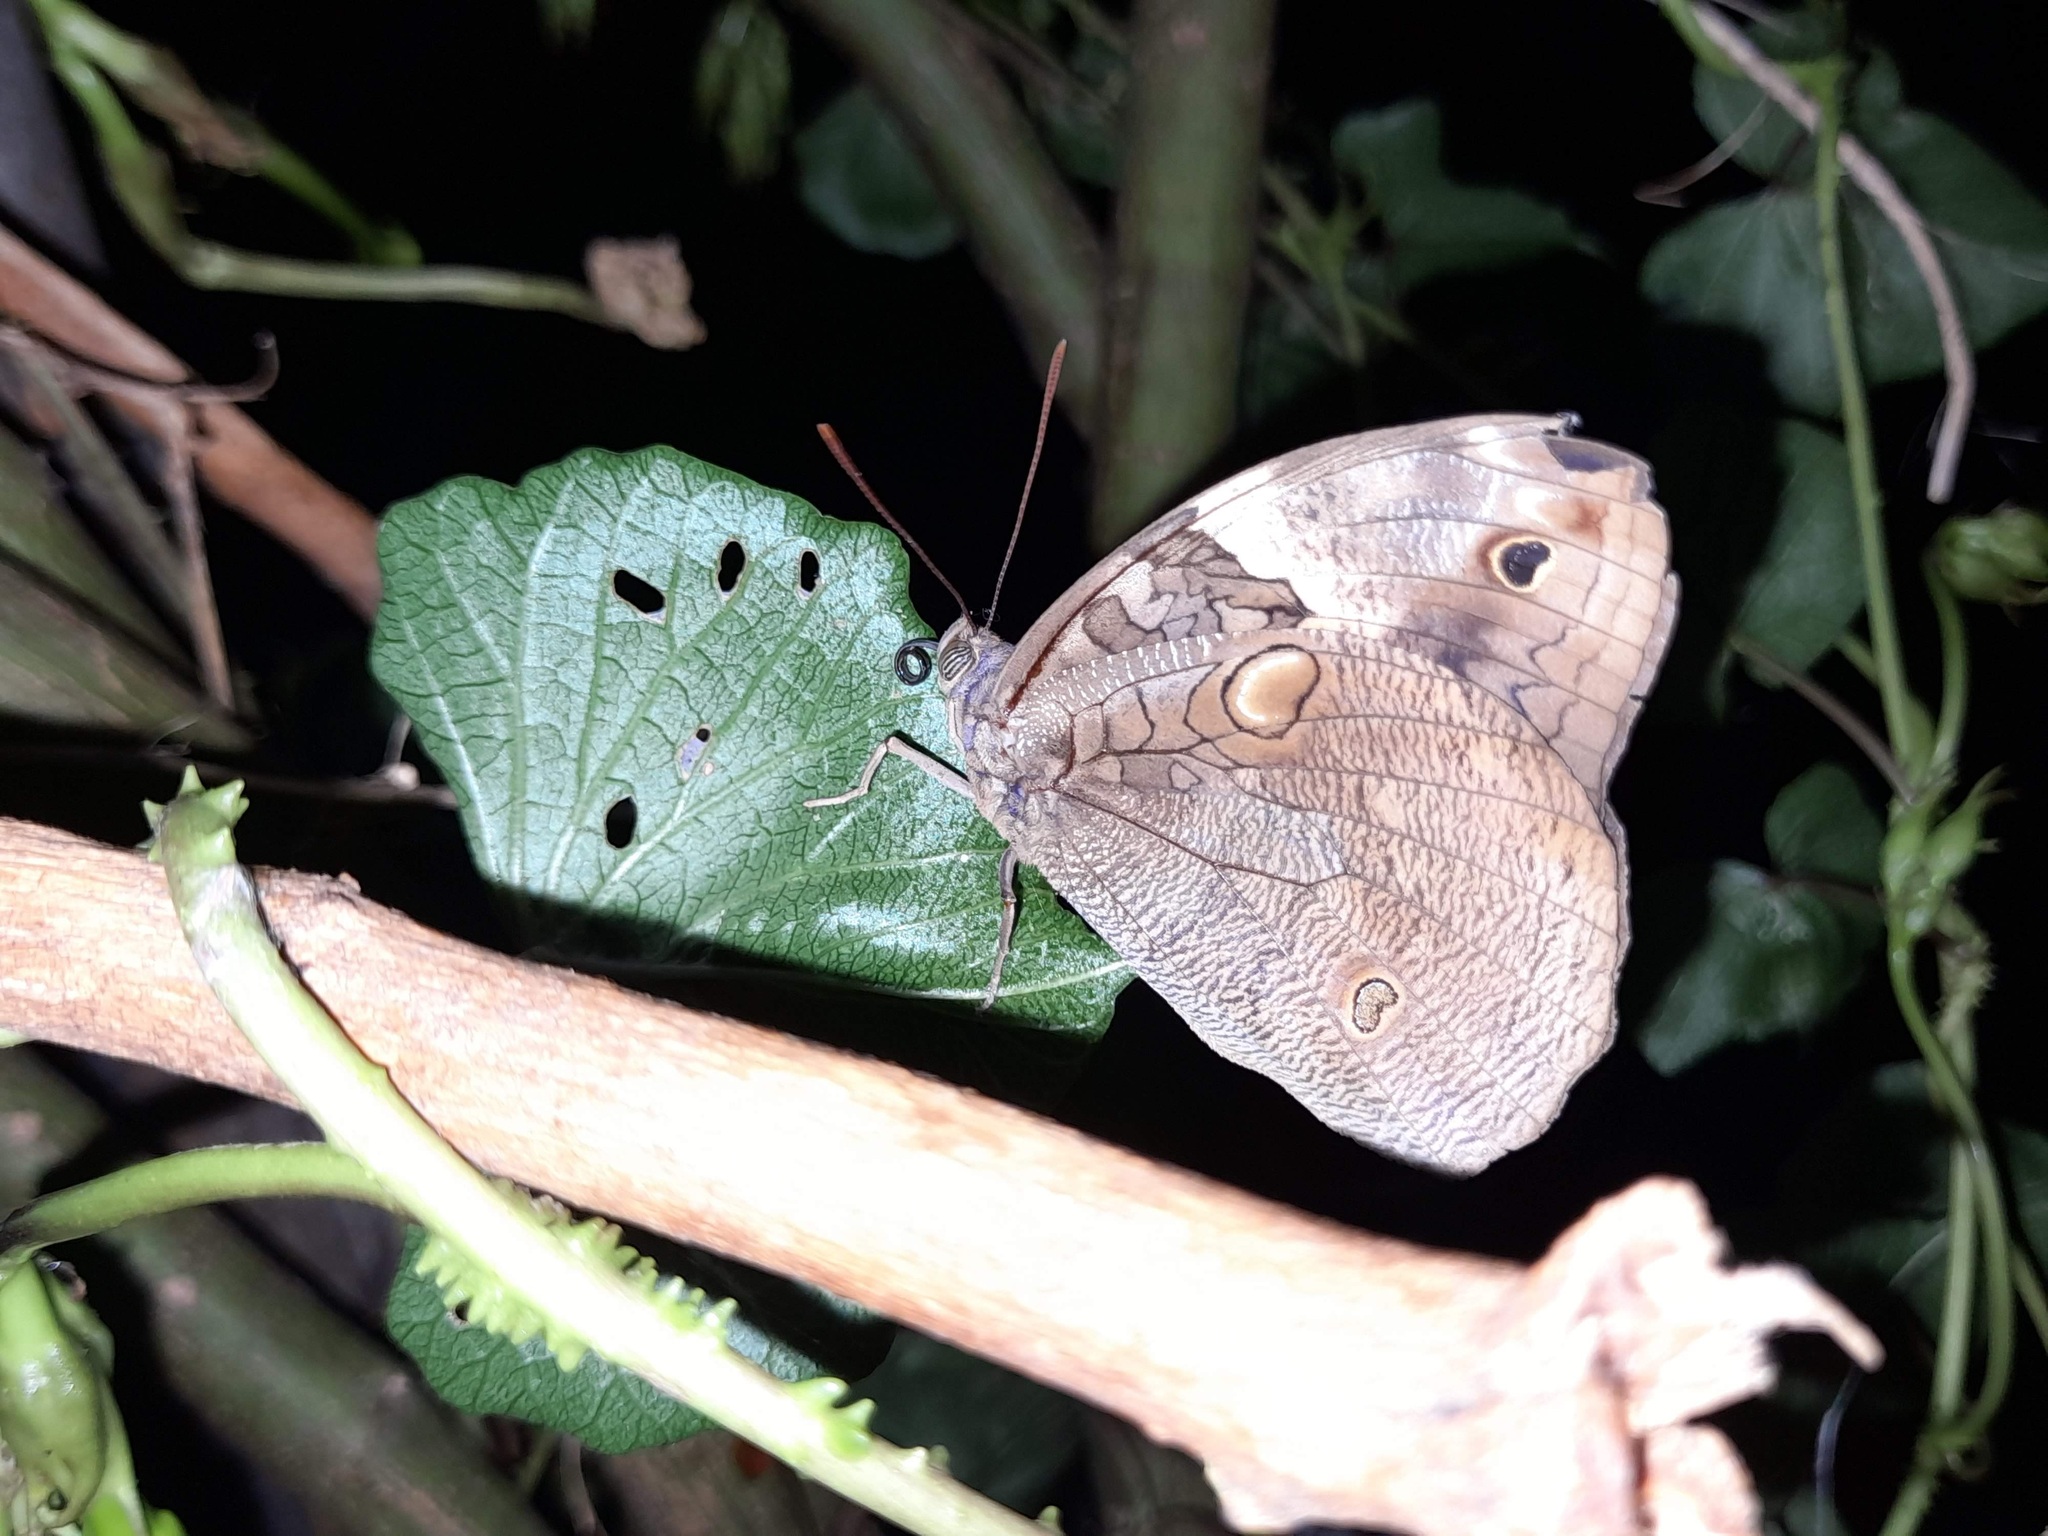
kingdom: Animalia
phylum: Arthropoda
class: Insecta
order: Lepidoptera
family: Nymphalidae
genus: Opsiphanes
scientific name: Opsiphanes invirae
